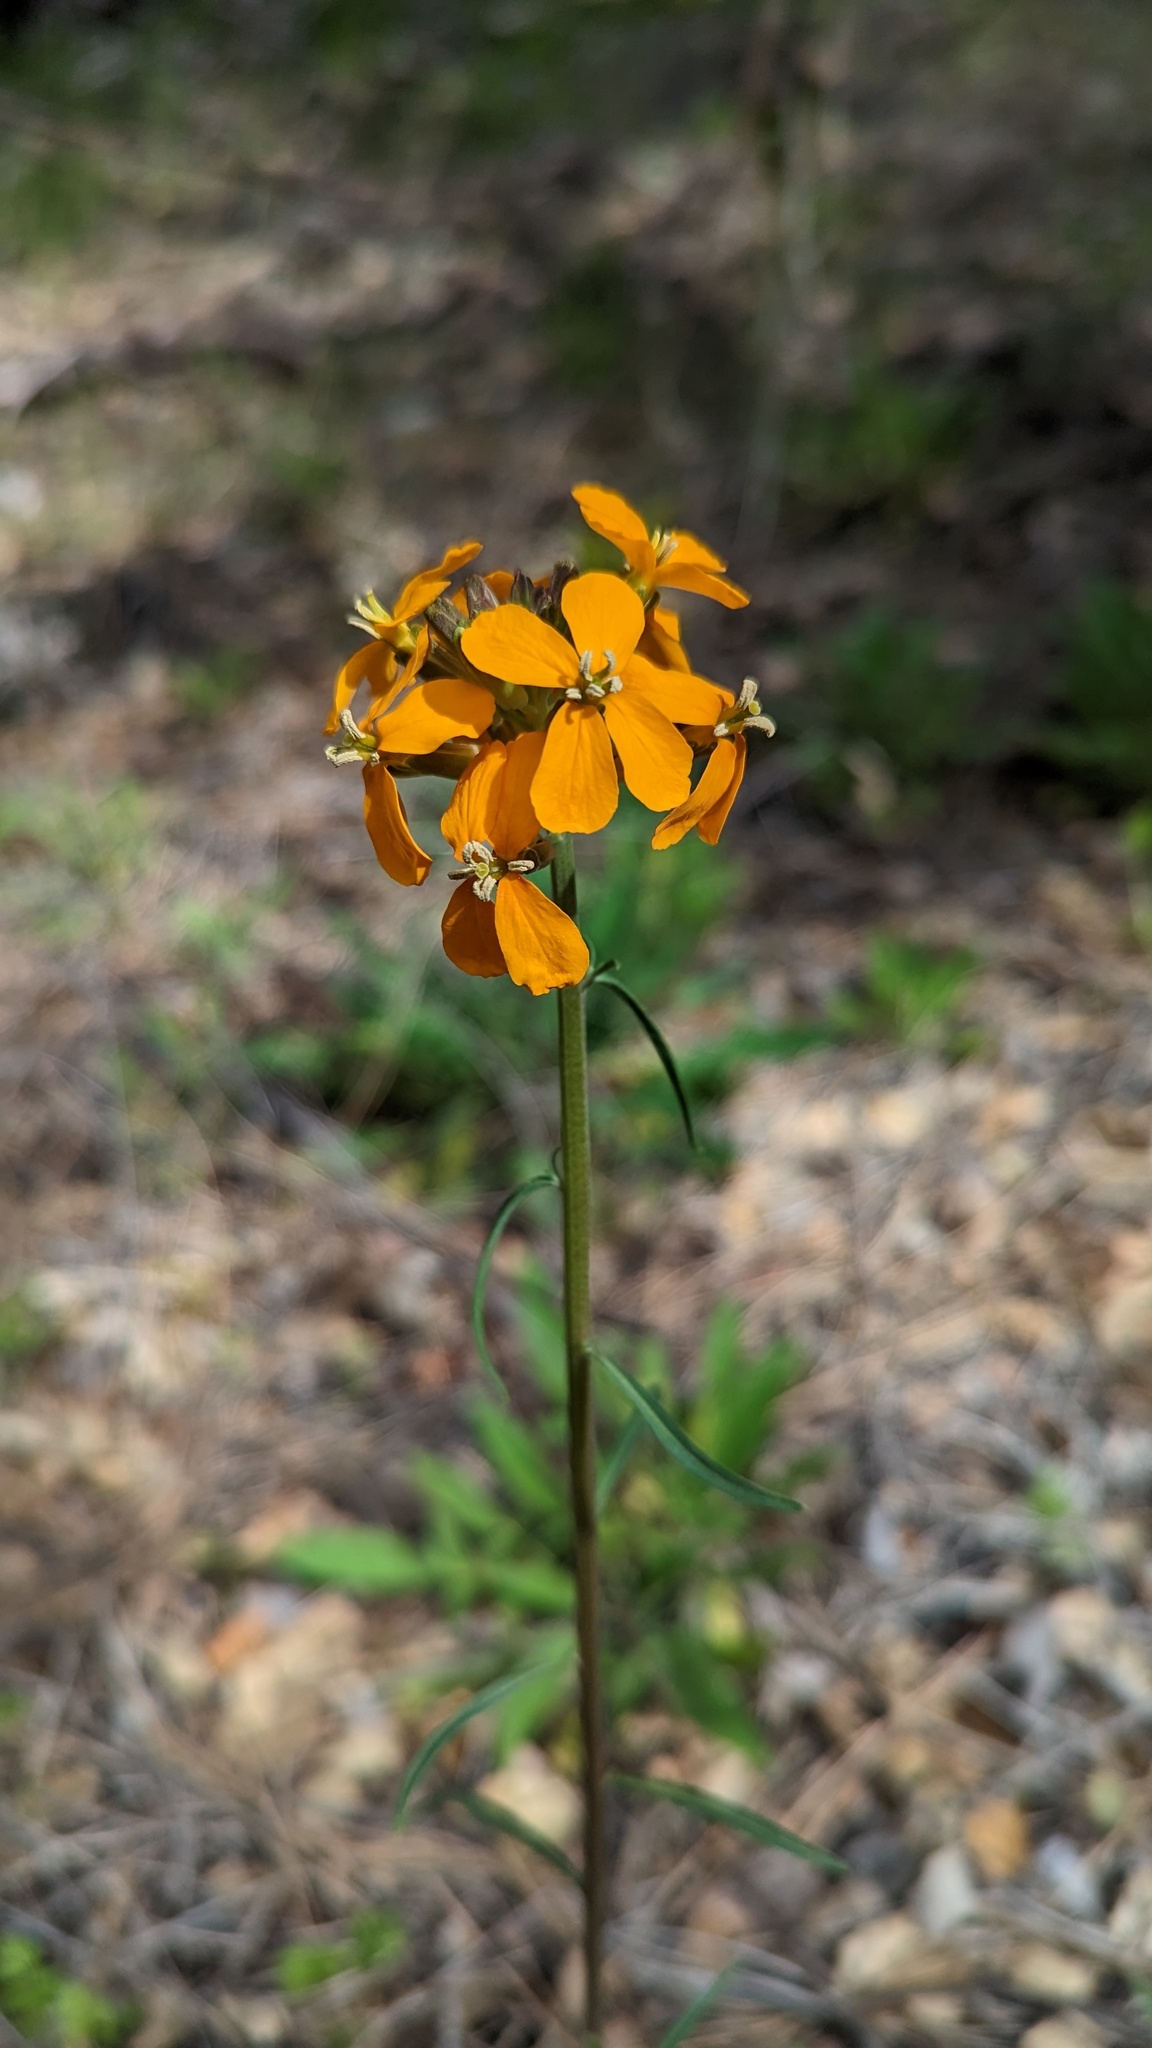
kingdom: Plantae
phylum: Tracheophyta
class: Magnoliopsida
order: Brassicales
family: Brassicaceae
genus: Erysimum
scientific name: Erysimum capitatum
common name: Western wallflower
